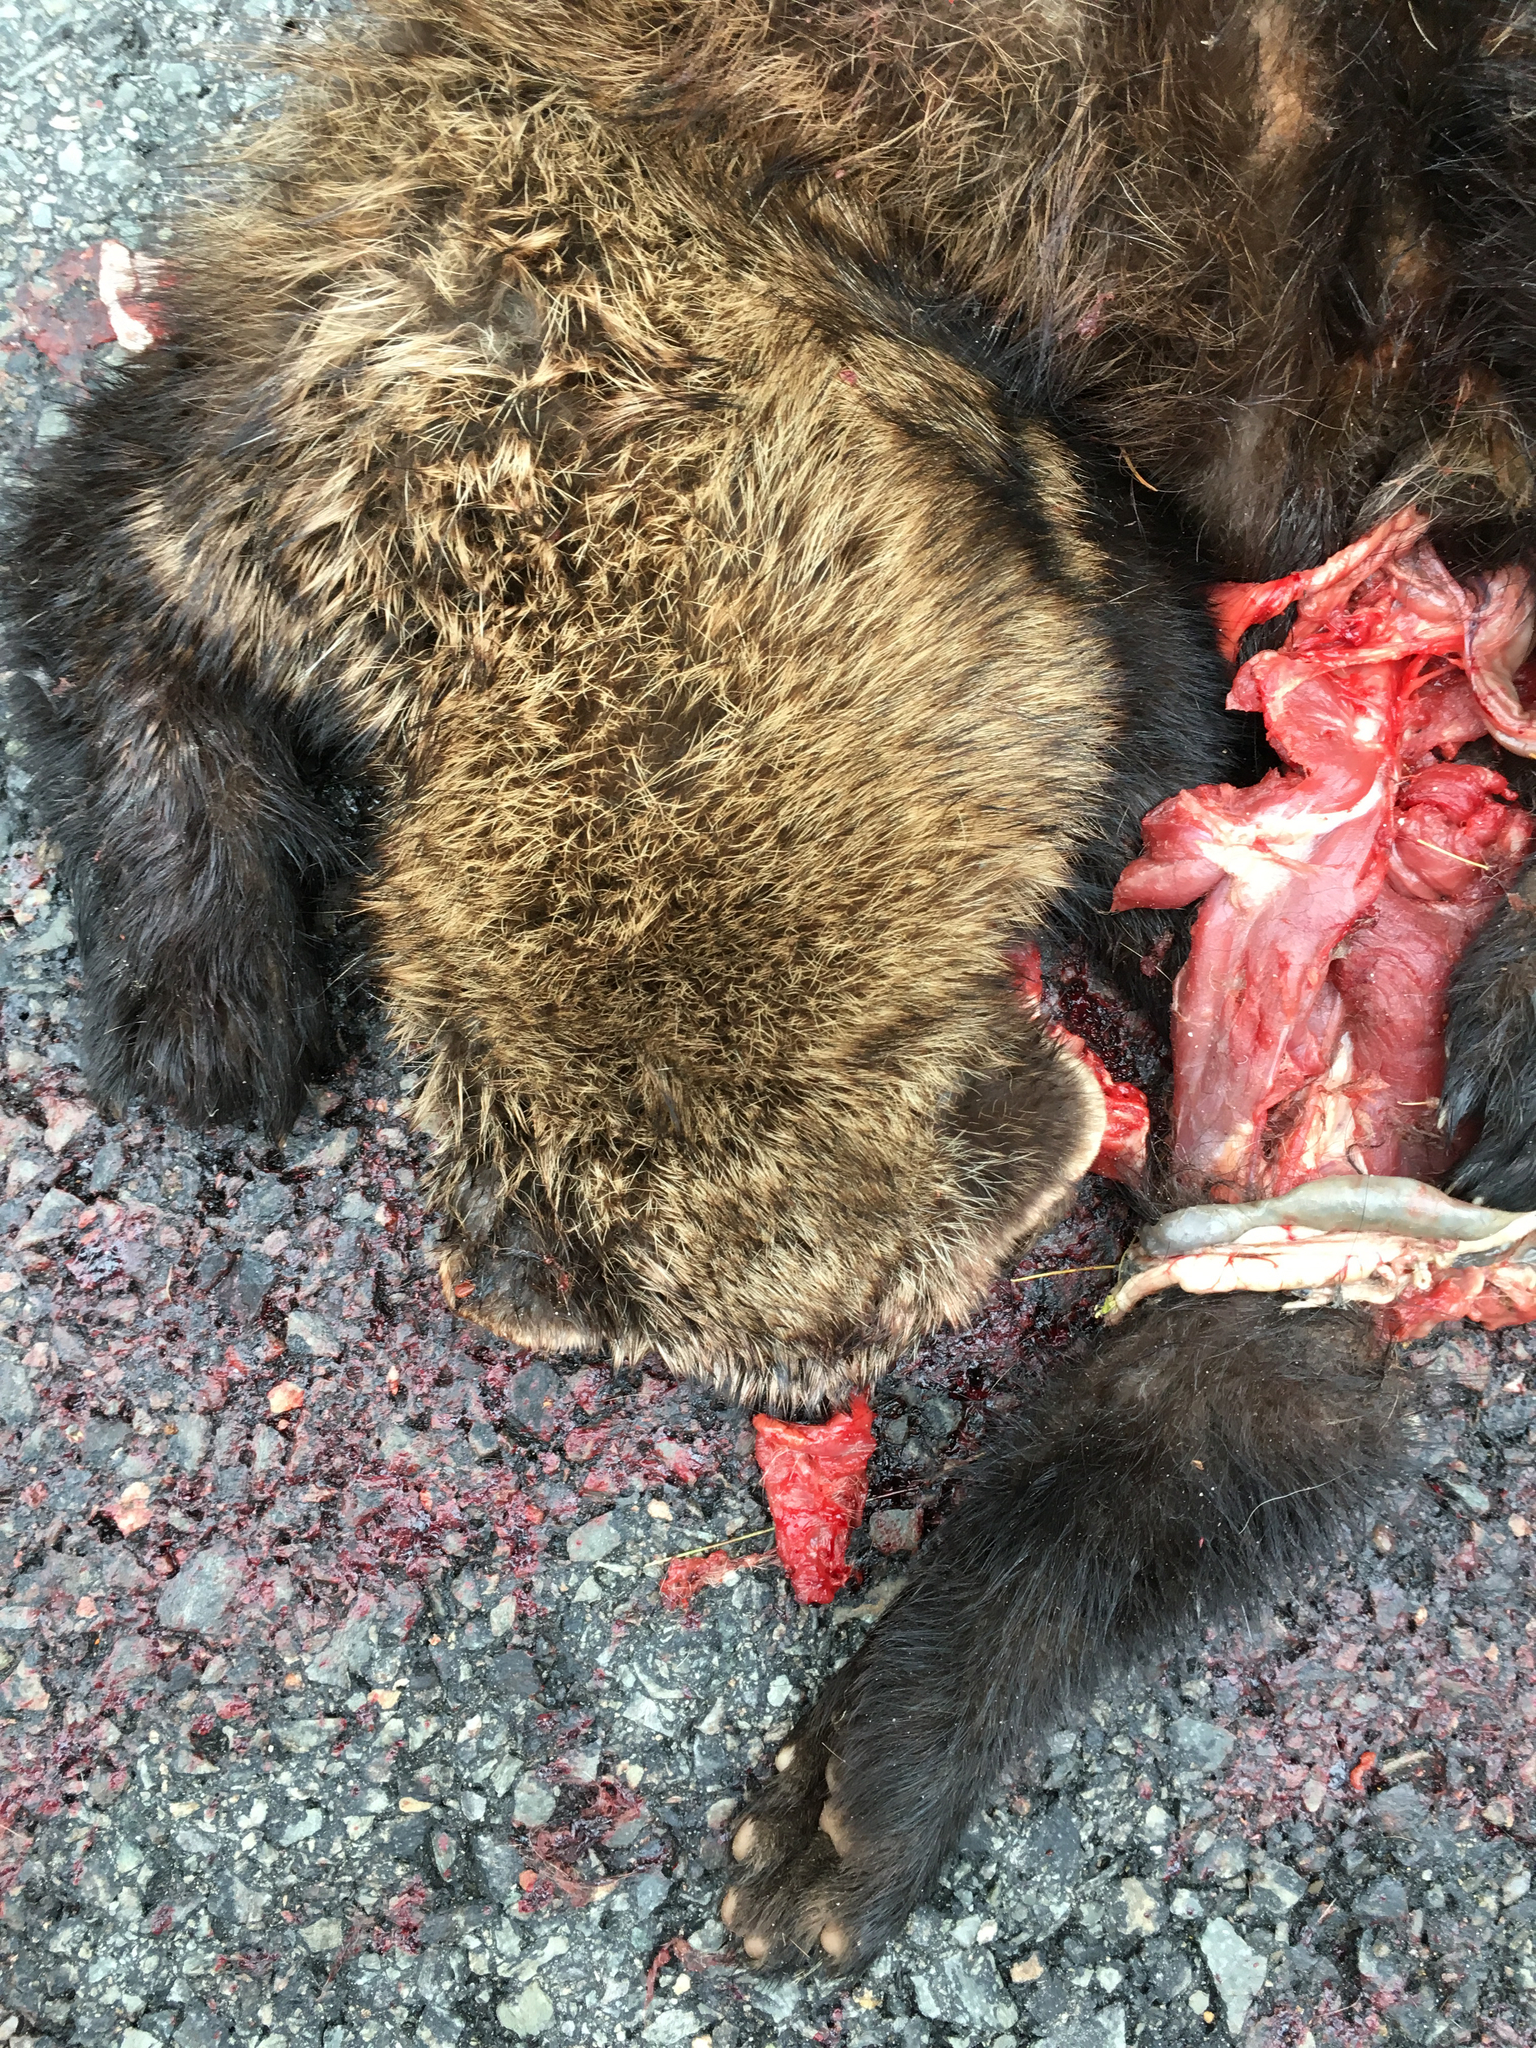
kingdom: Animalia
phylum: Chordata
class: Mammalia
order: Carnivora
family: Mustelidae
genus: Pekania
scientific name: Pekania pennanti
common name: Fisher
